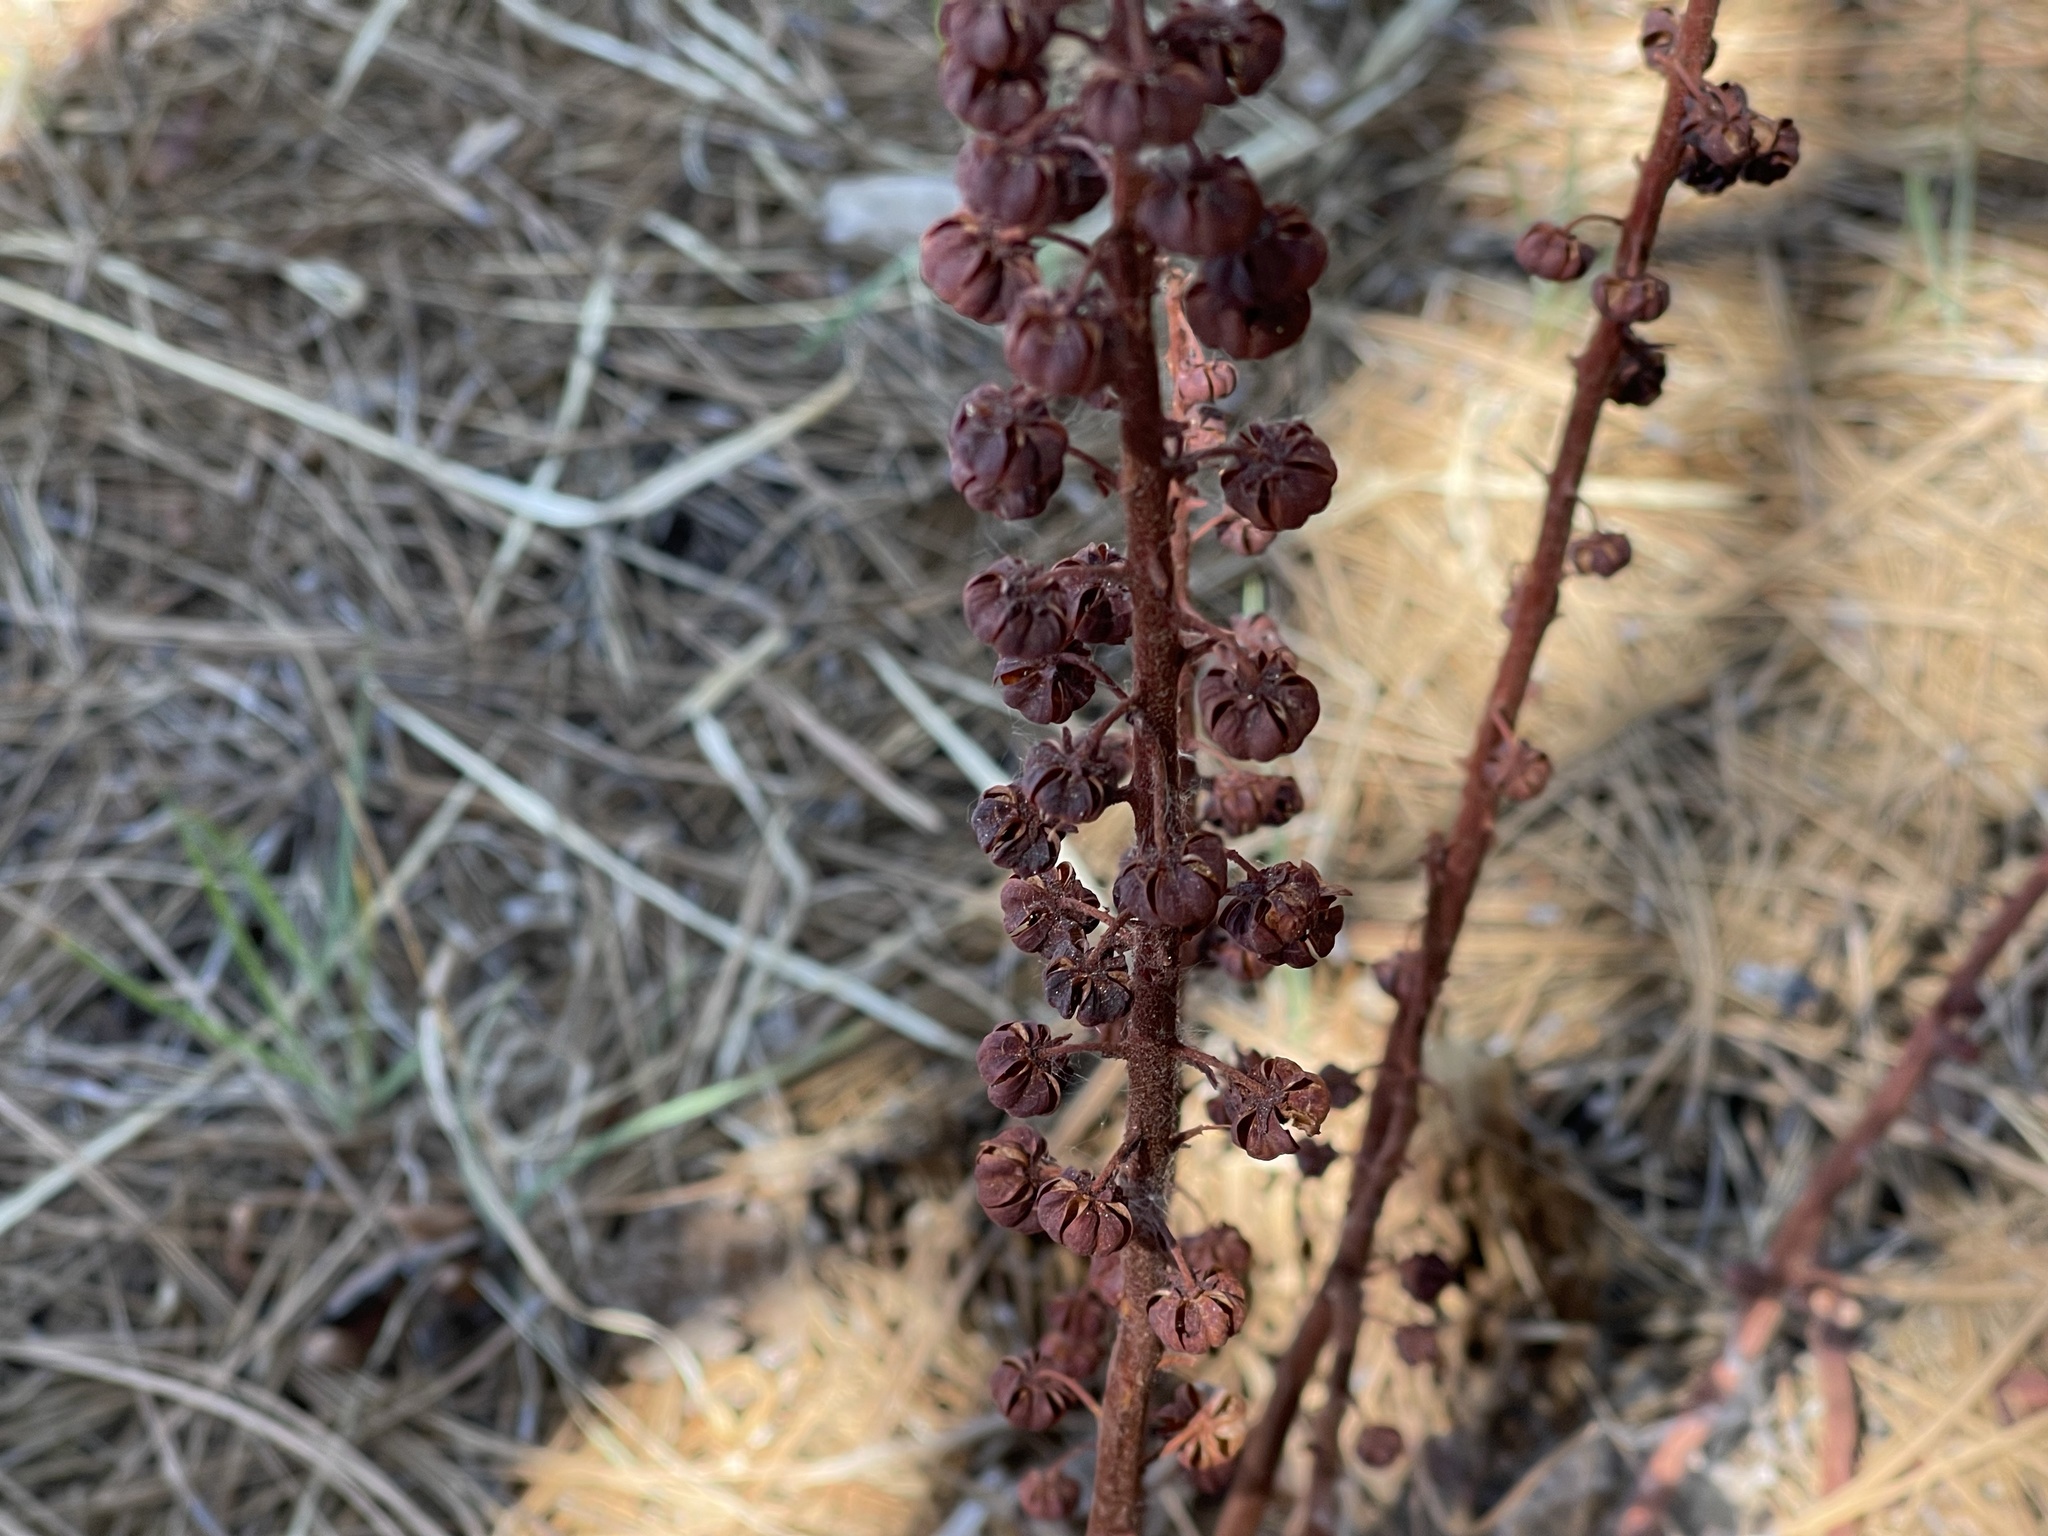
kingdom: Plantae
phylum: Tracheophyta
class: Magnoliopsida
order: Ericales
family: Ericaceae
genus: Pterospora
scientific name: Pterospora andromedea
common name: Giant bird's-nest
